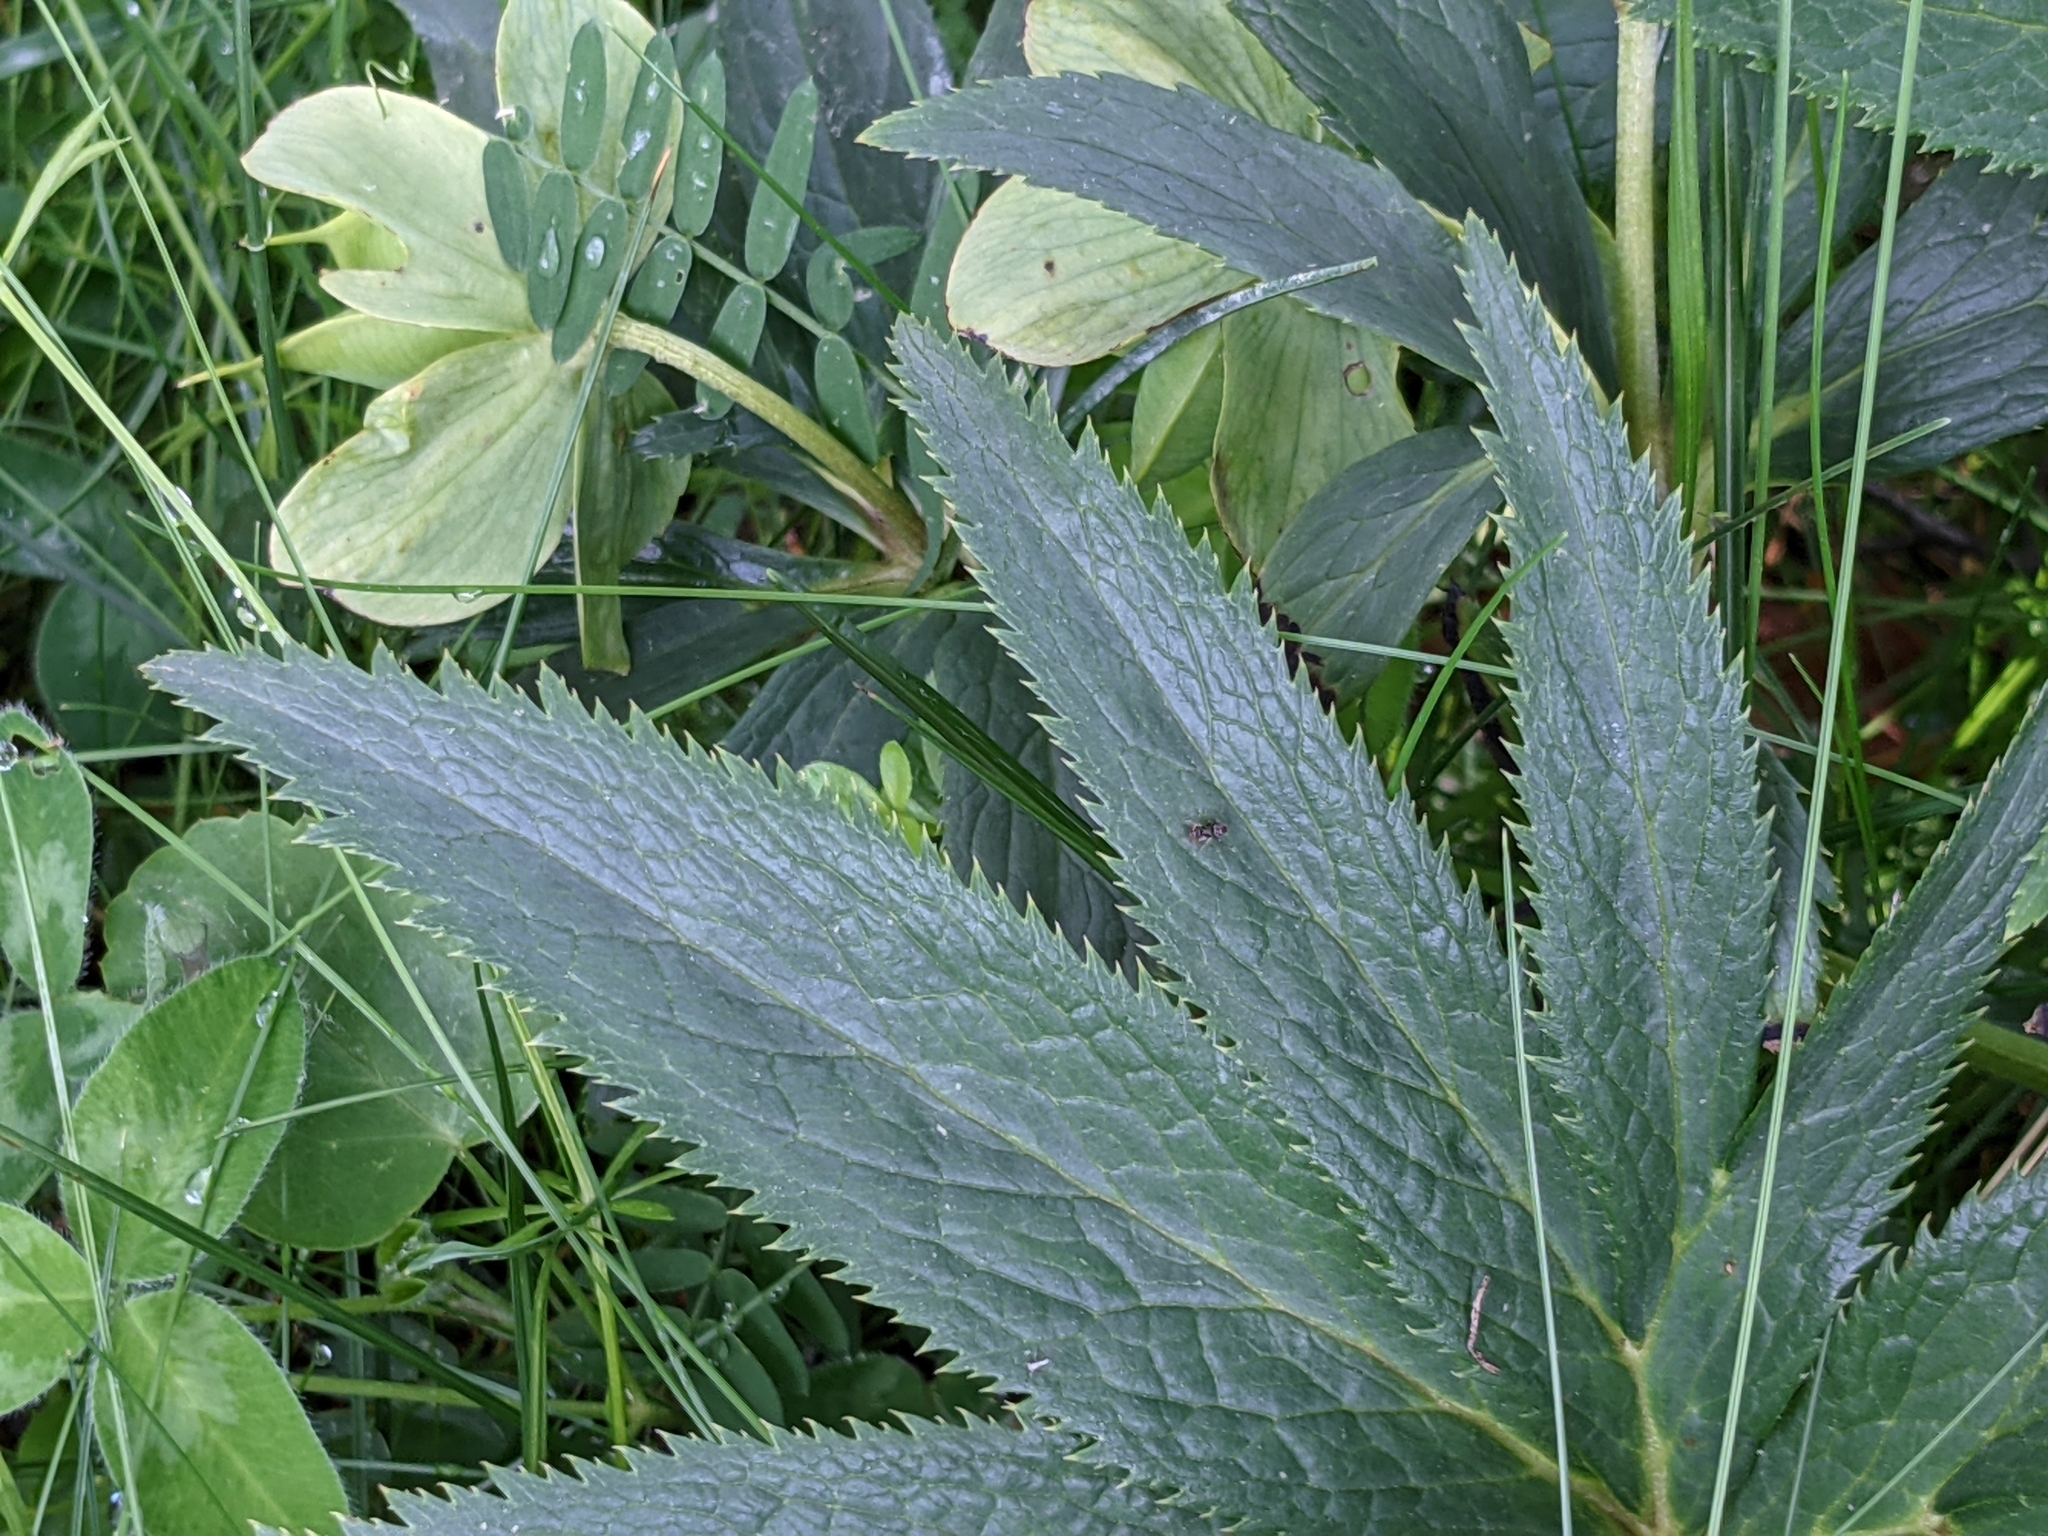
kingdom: Plantae
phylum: Tracheophyta
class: Magnoliopsida
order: Ranunculales
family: Ranunculaceae
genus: Helleborus
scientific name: Helleborus viridis
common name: Green hellebore
